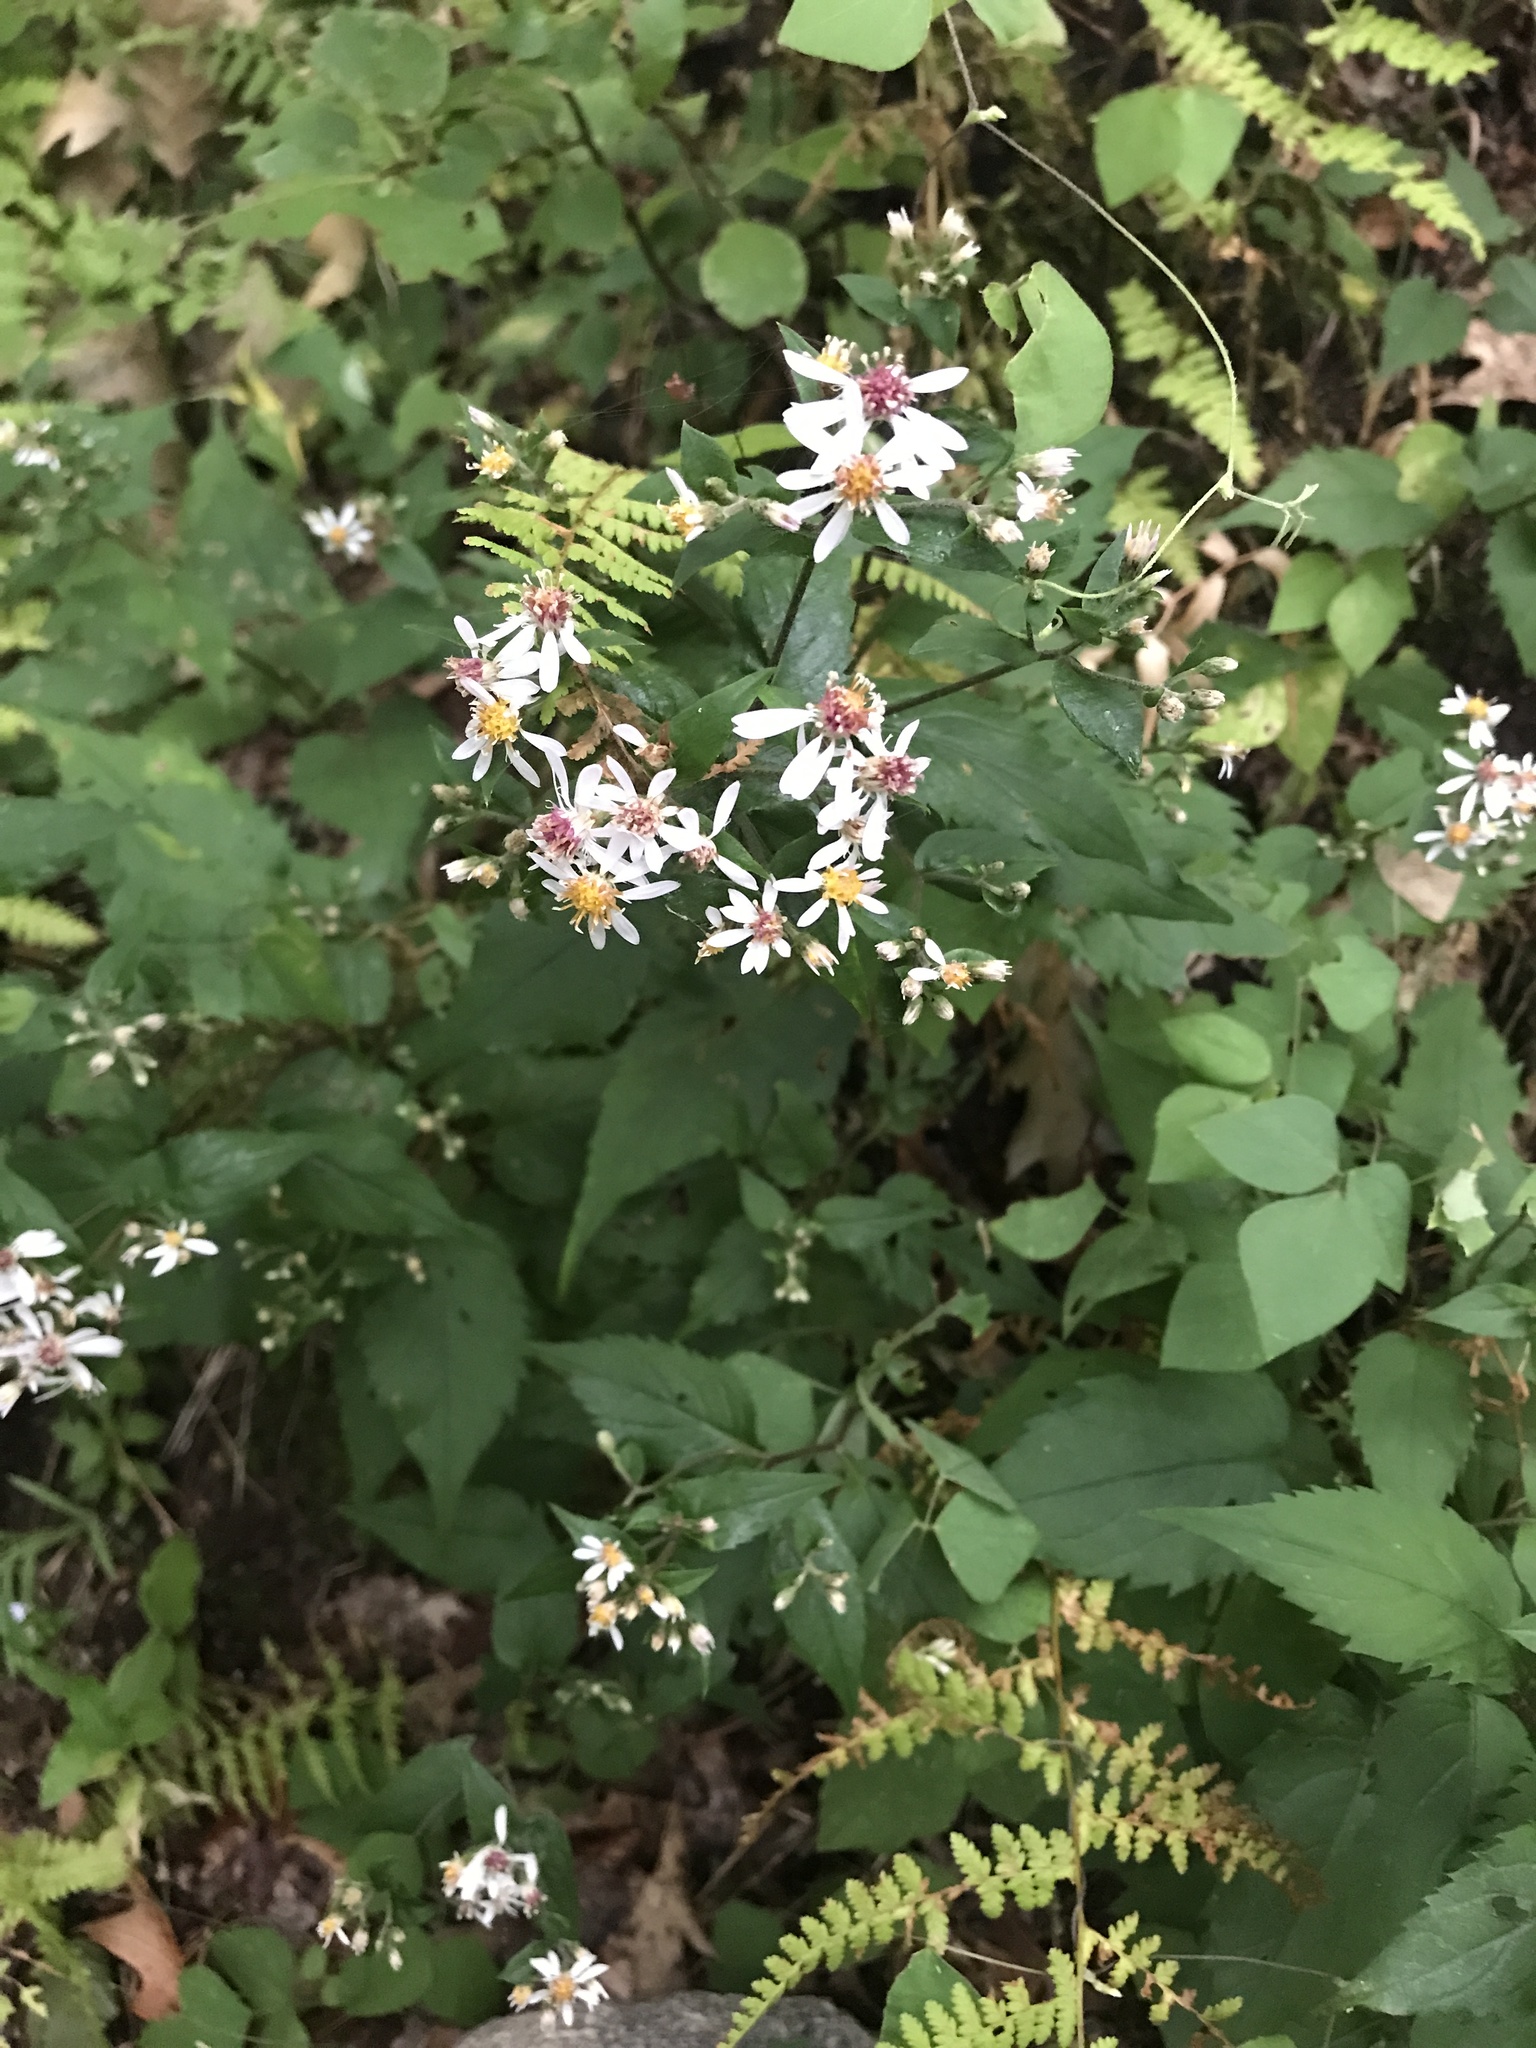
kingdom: Plantae
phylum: Tracheophyta
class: Magnoliopsida
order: Asterales
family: Asteraceae
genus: Eurybia
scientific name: Eurybia divaricata
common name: White wood aster
